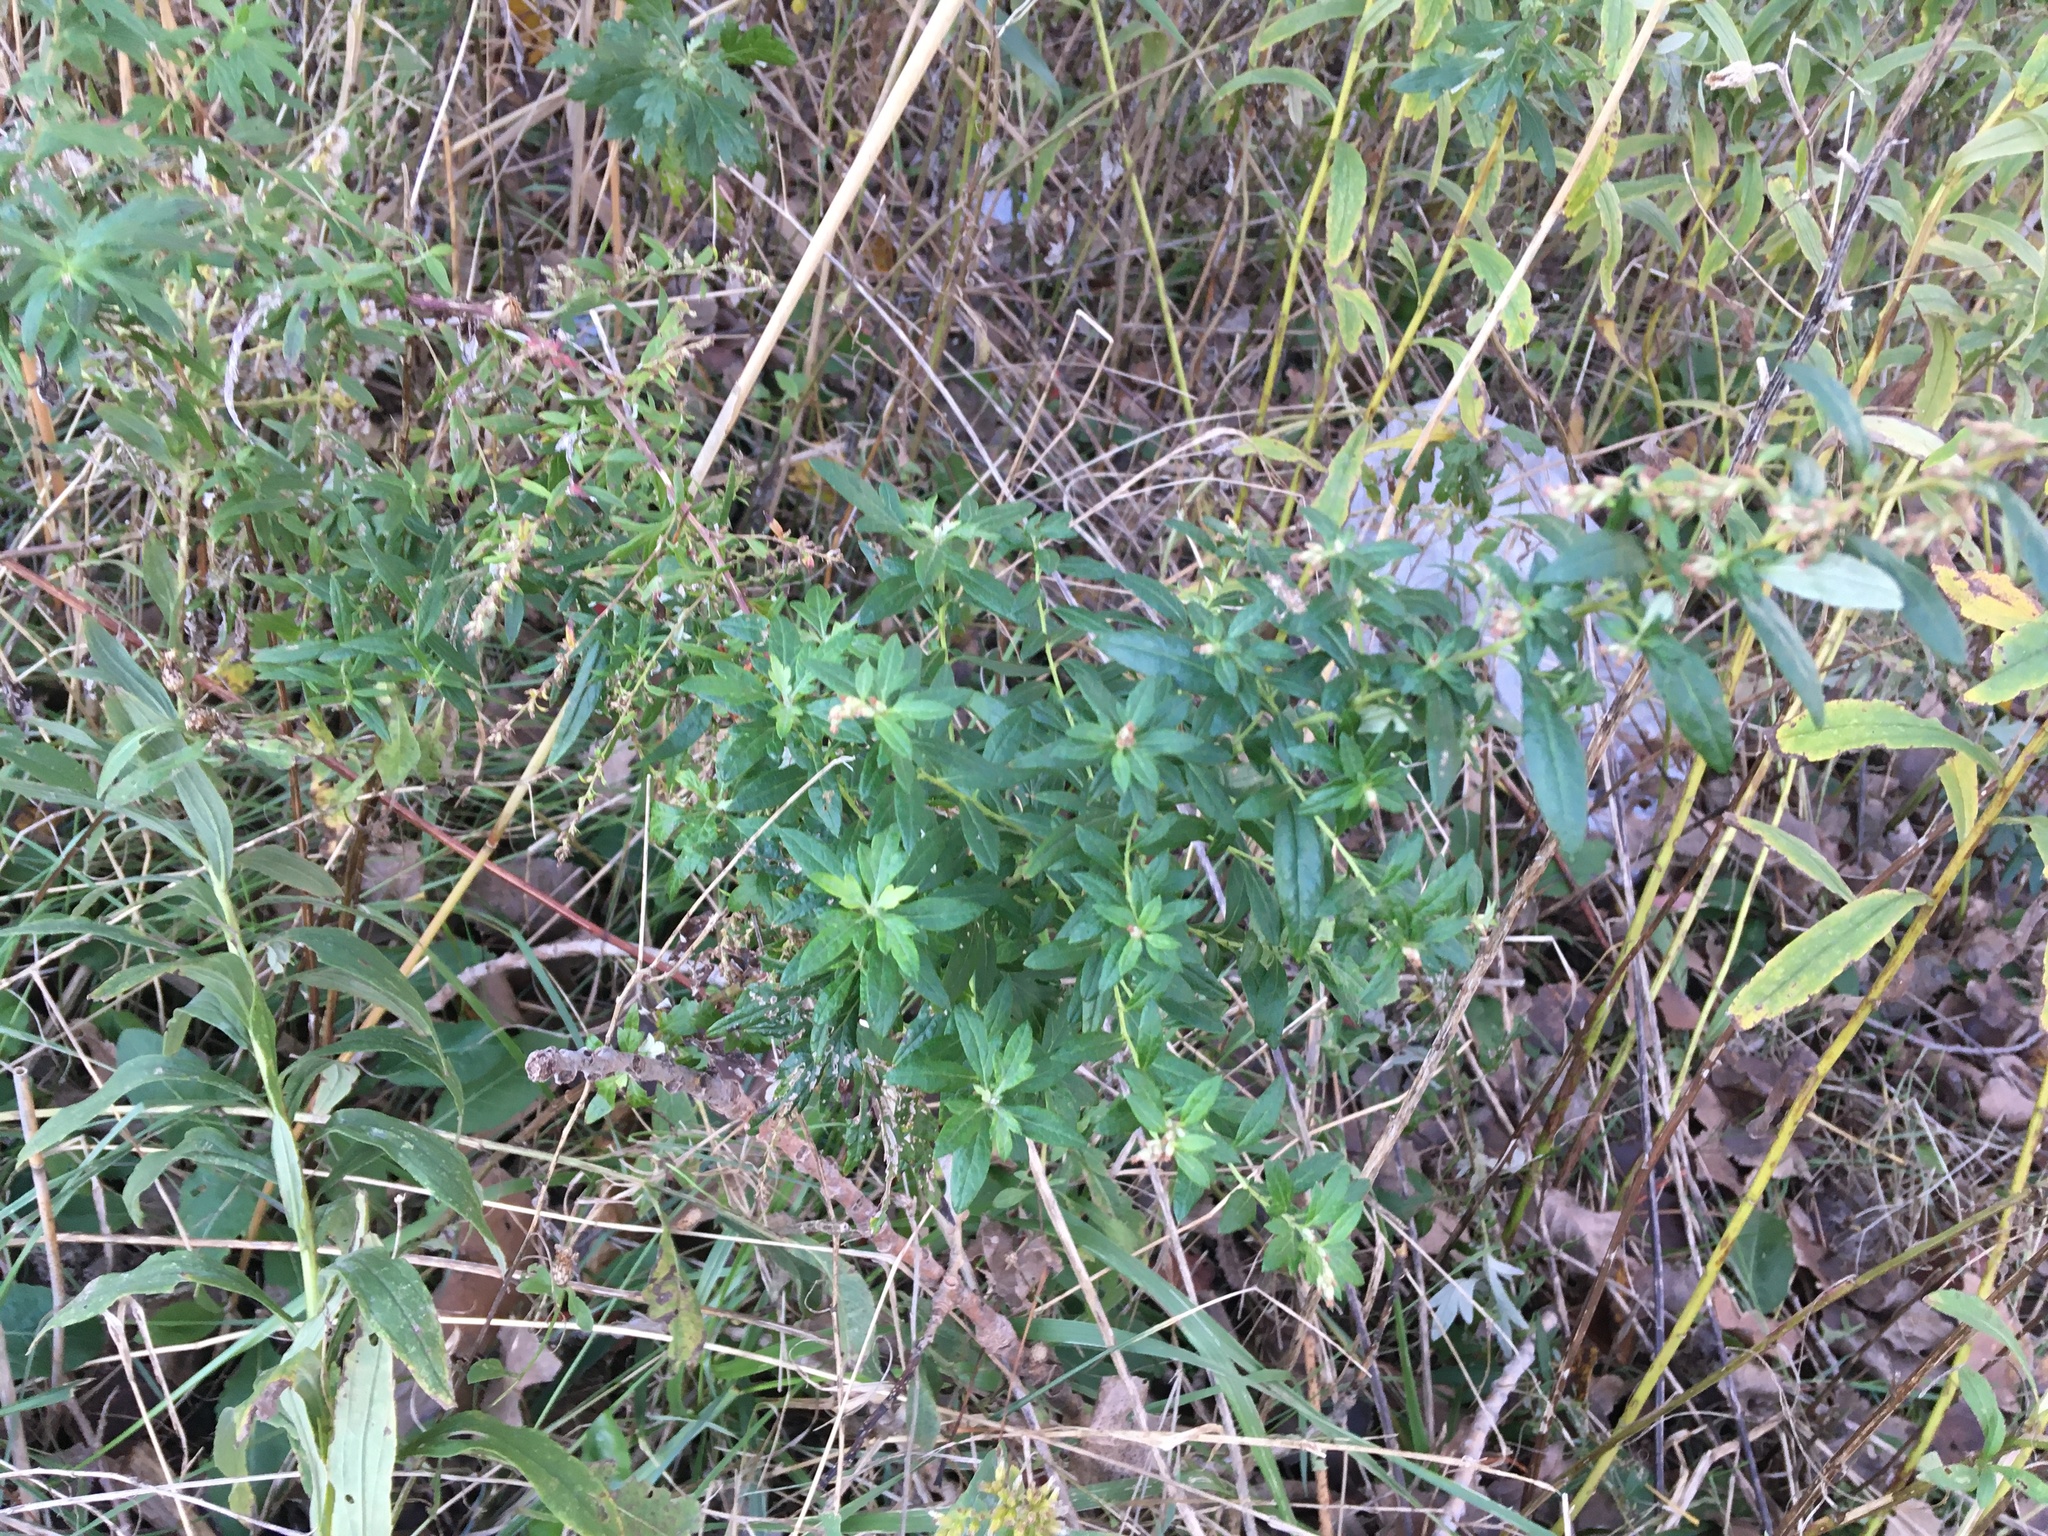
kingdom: Plantae
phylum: Tracheophyta
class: Magnoliopsida
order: Asterales
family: Asteraceae
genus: Artemisia
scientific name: Artemisia vulgaris
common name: Mugwort
